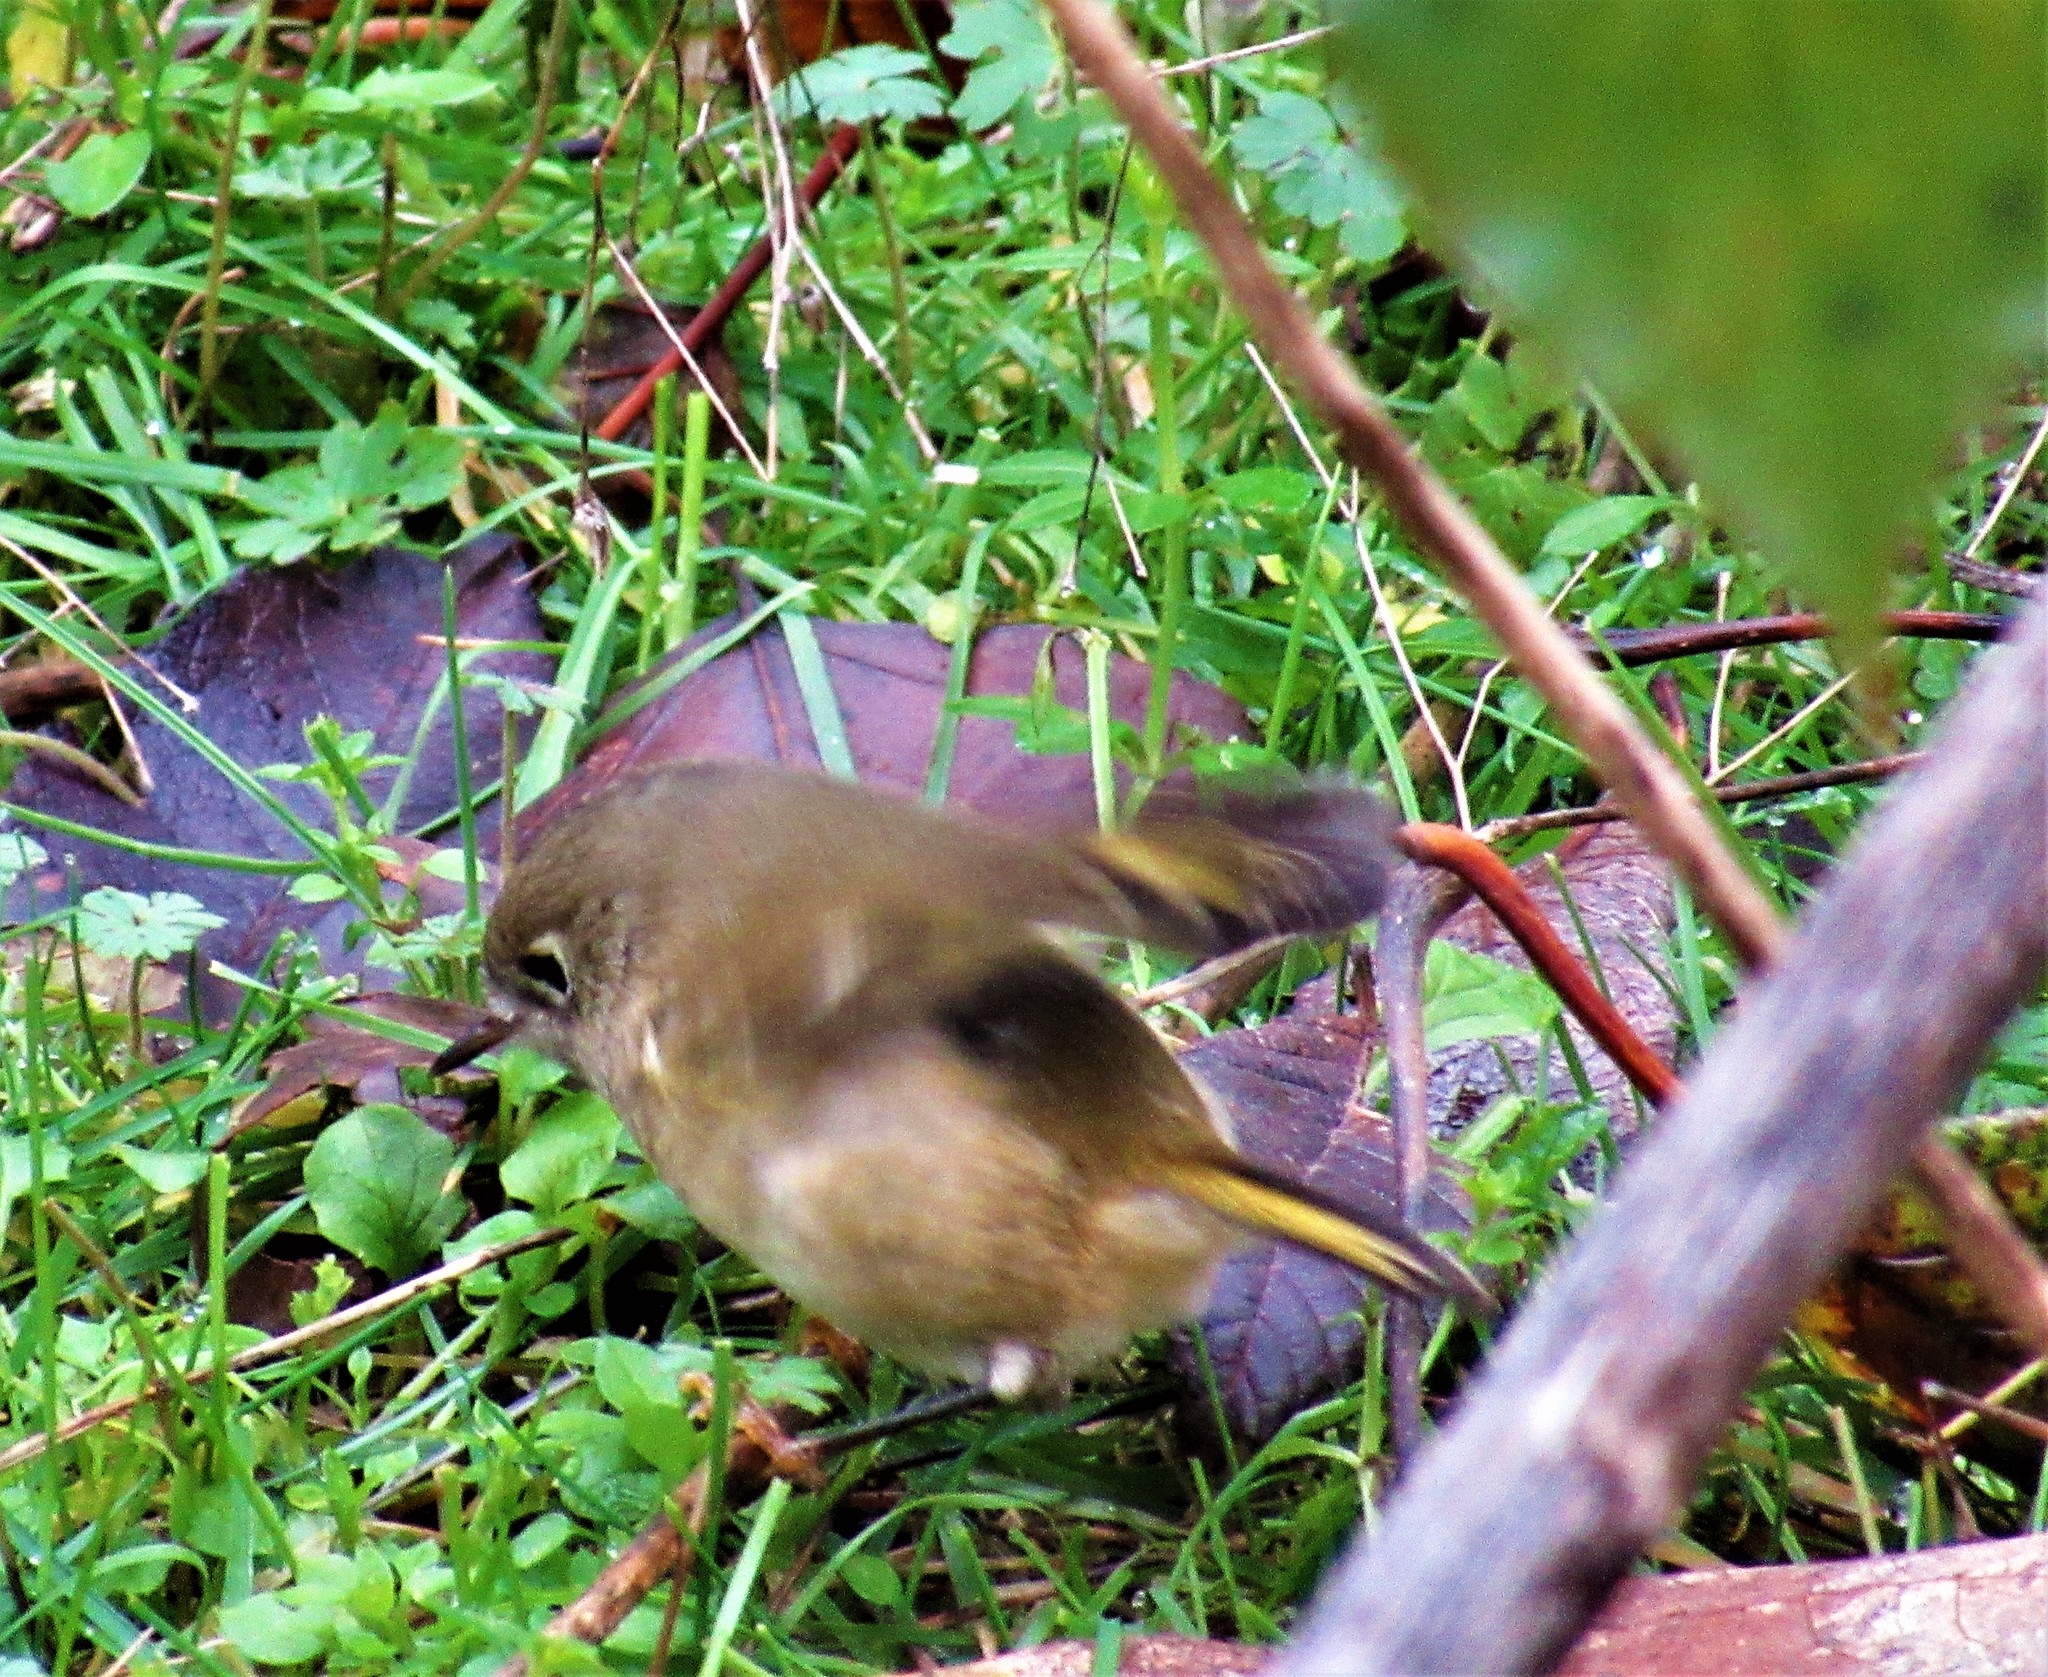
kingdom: Animalia
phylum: Chordata
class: Aves
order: Passeriformes
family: Regulidae
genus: Regulus
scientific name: Regulus calendula
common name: Ruby-crowned kinglet
